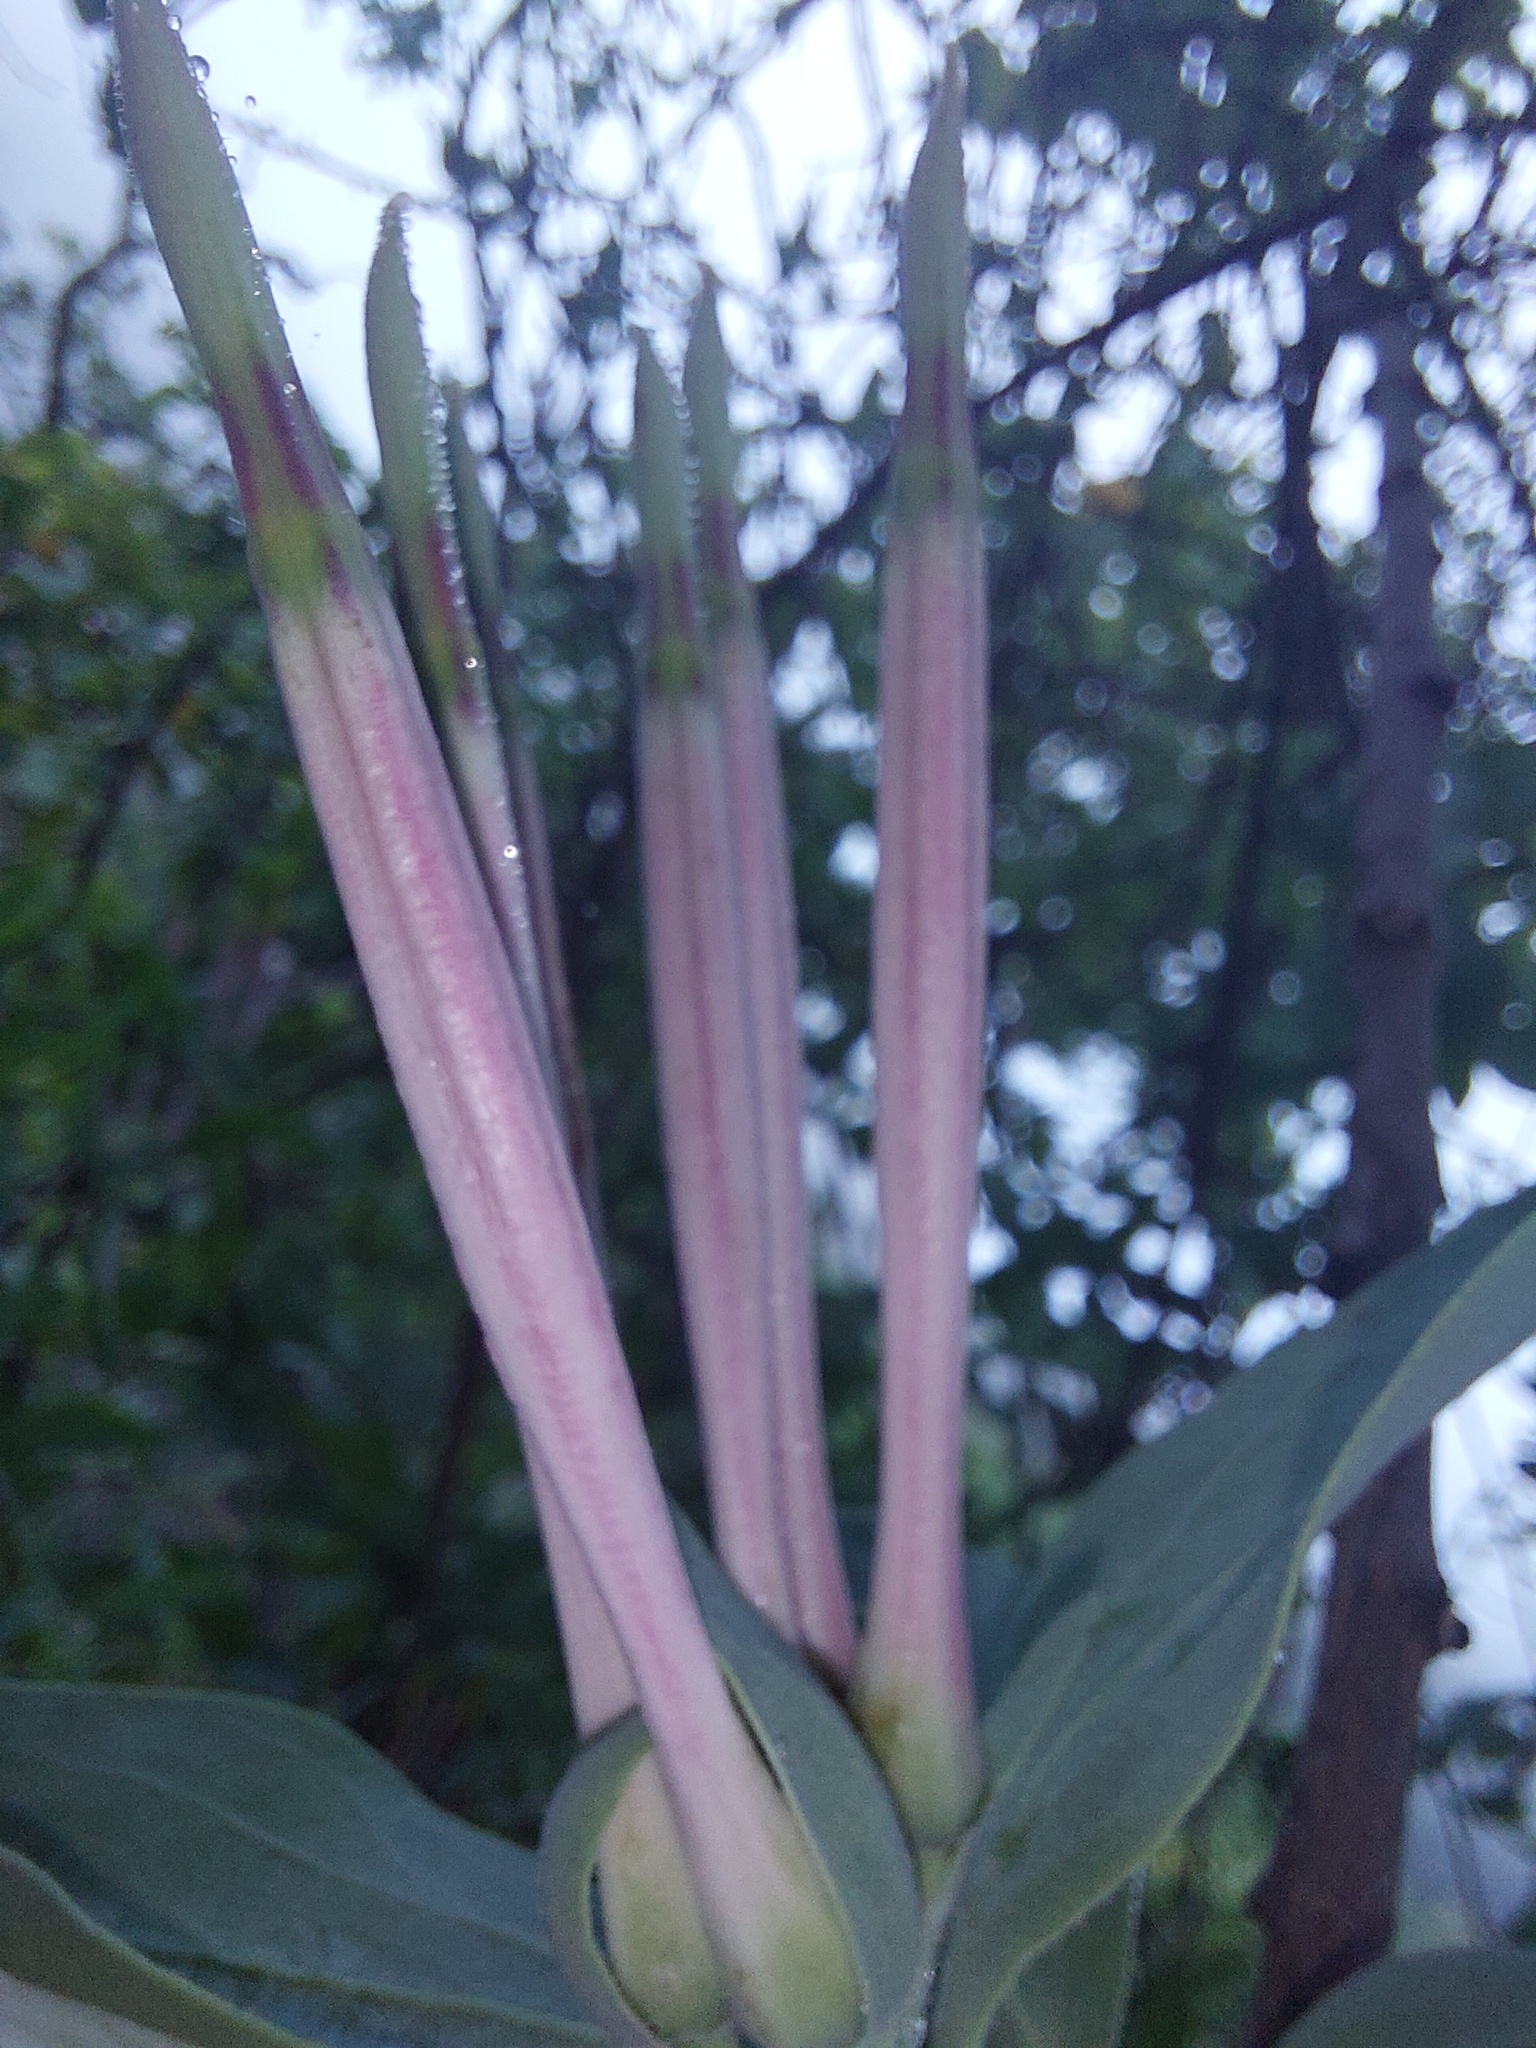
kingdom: Plantae
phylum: Tracheophyta
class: Magnoliopsida
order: Santalales
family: Loranthaceae
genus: Agelanthus
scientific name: Agelanthus natalitius
